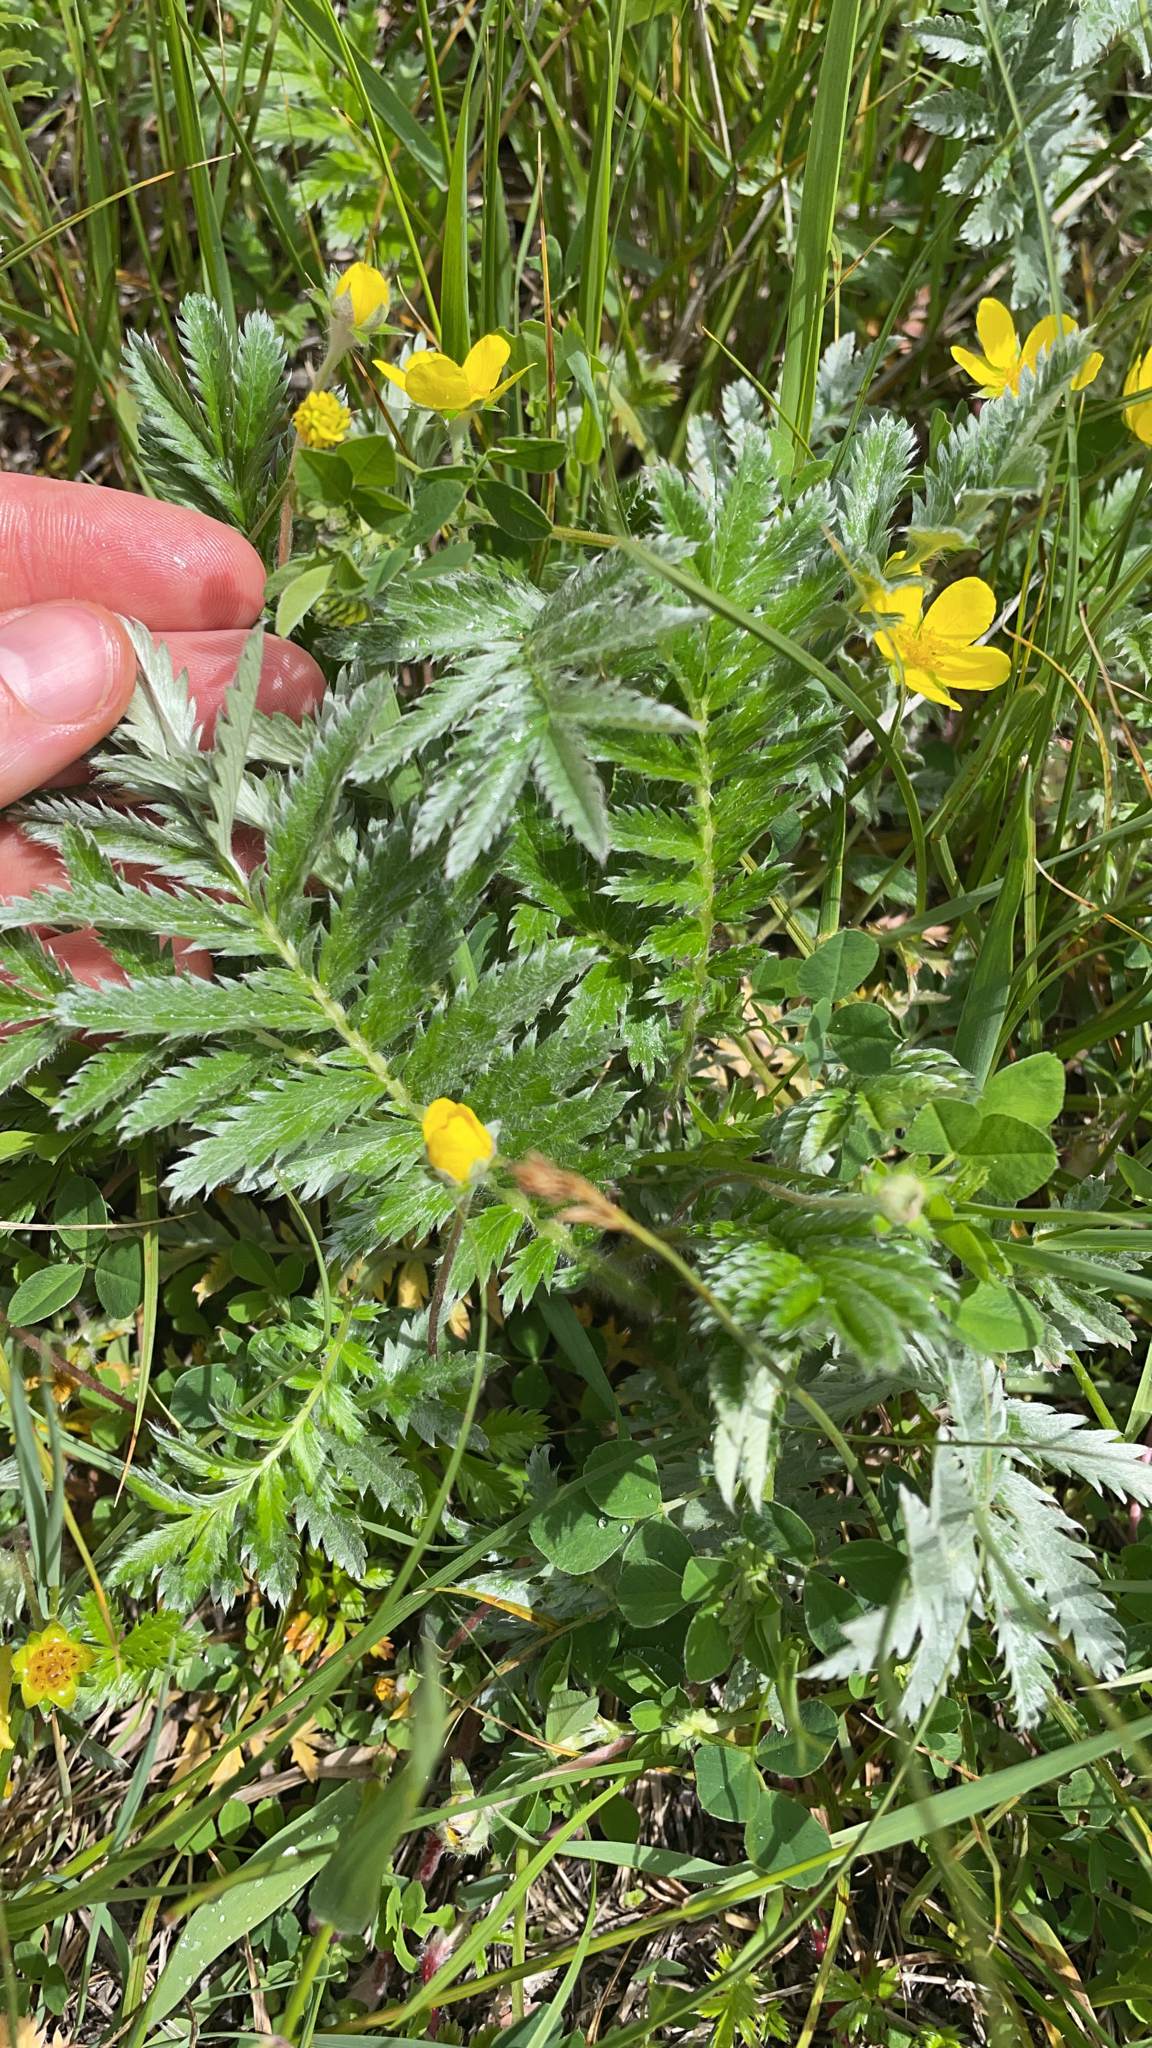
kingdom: Plantae
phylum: Tracheophyta
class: Magnoliopsida
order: Rosales
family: Rosaceae
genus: Argentina
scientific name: Argentina anserina
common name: Common silverweed
